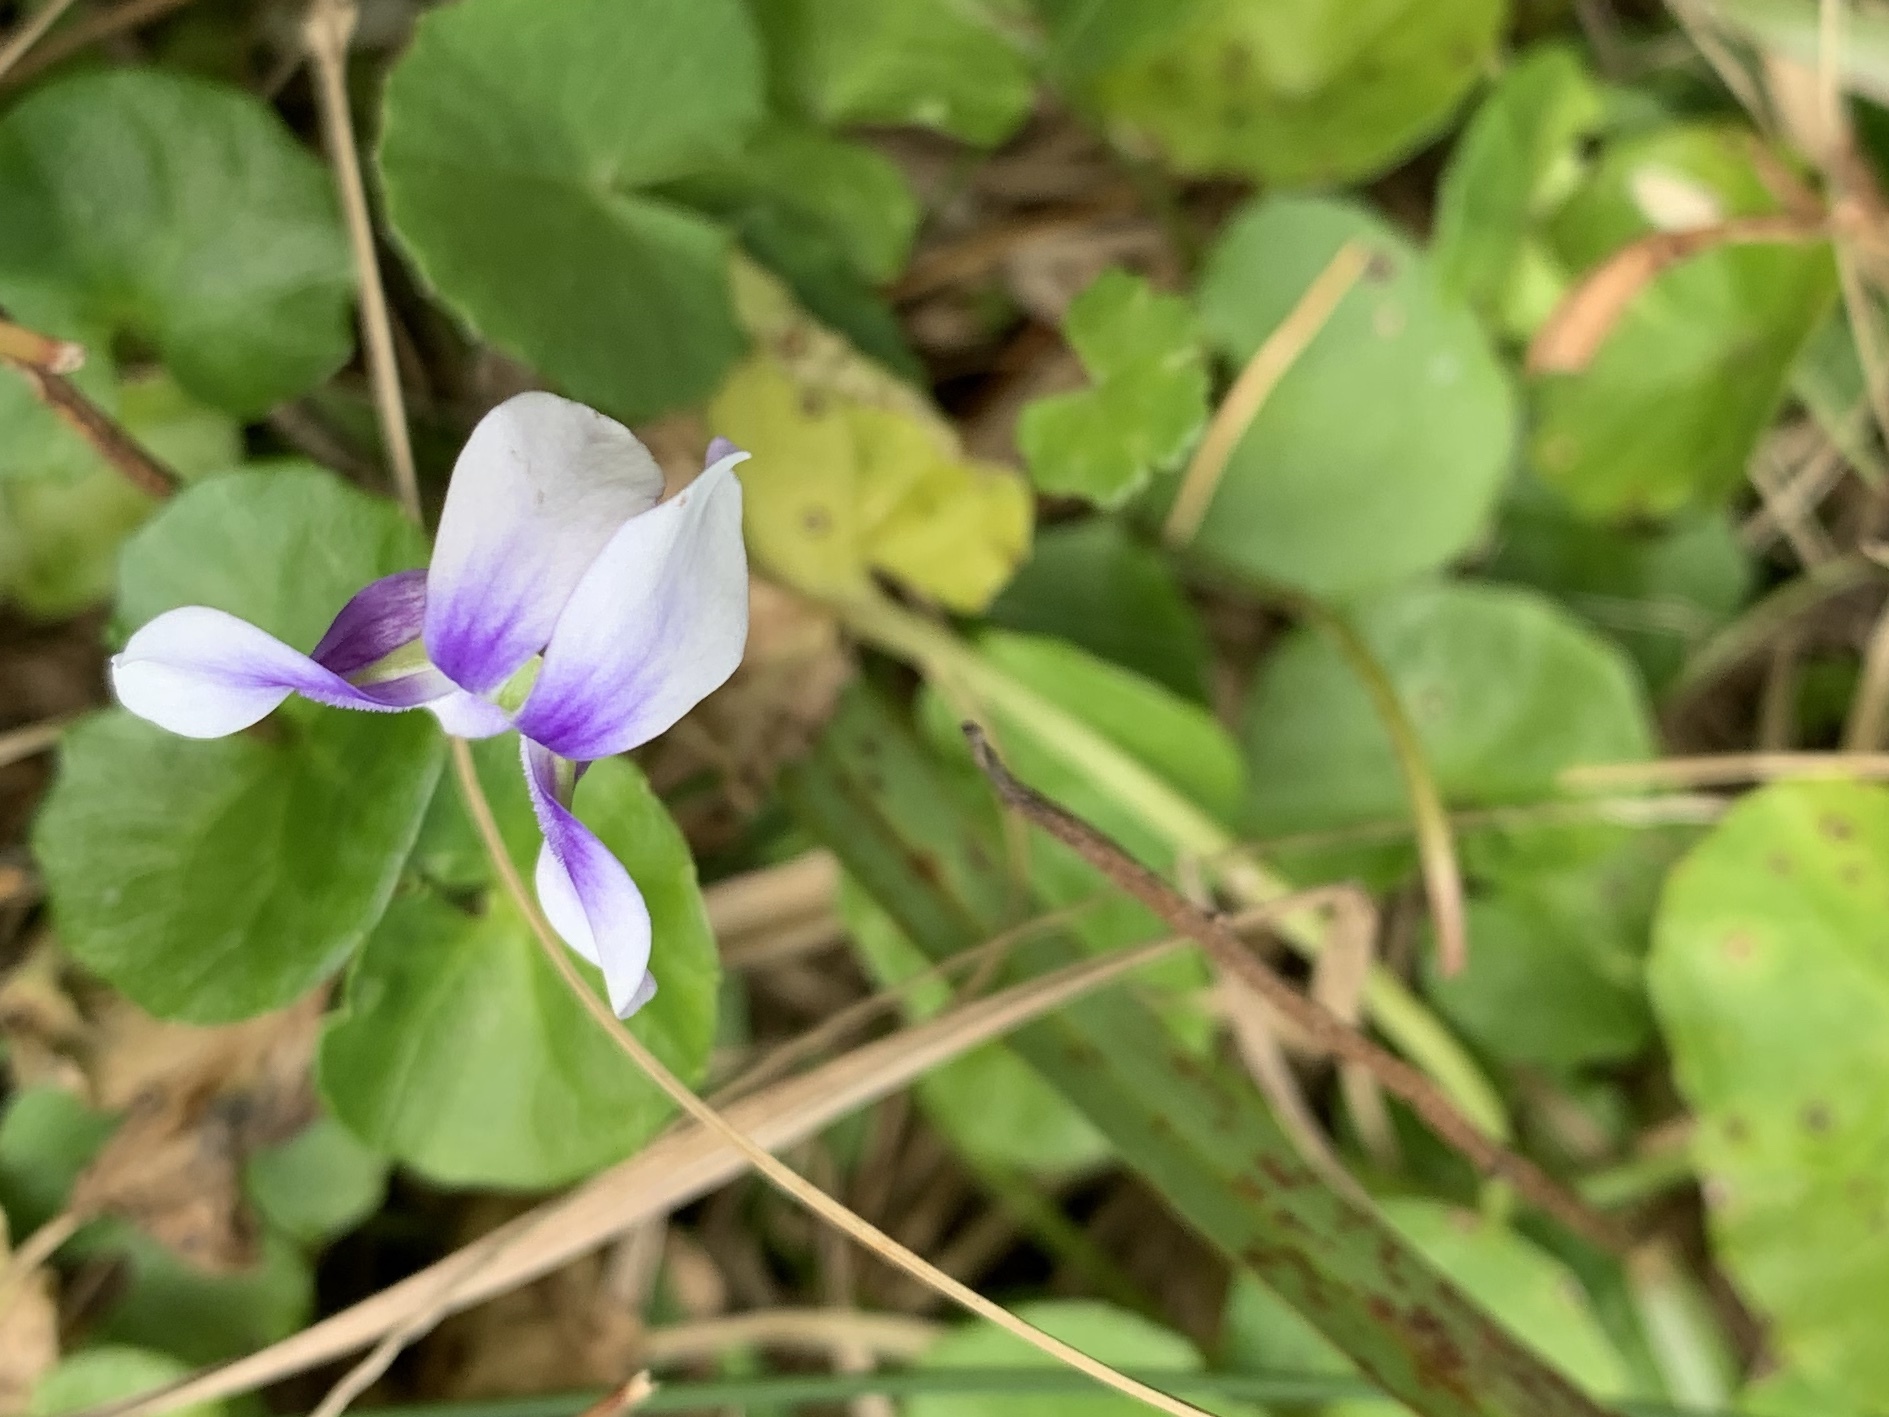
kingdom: Plantae
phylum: Tracheophyta
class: Magnoliopsida
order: Malpighiales
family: Violaceae
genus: Viola
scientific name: Viola hederacea
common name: Australian violet
